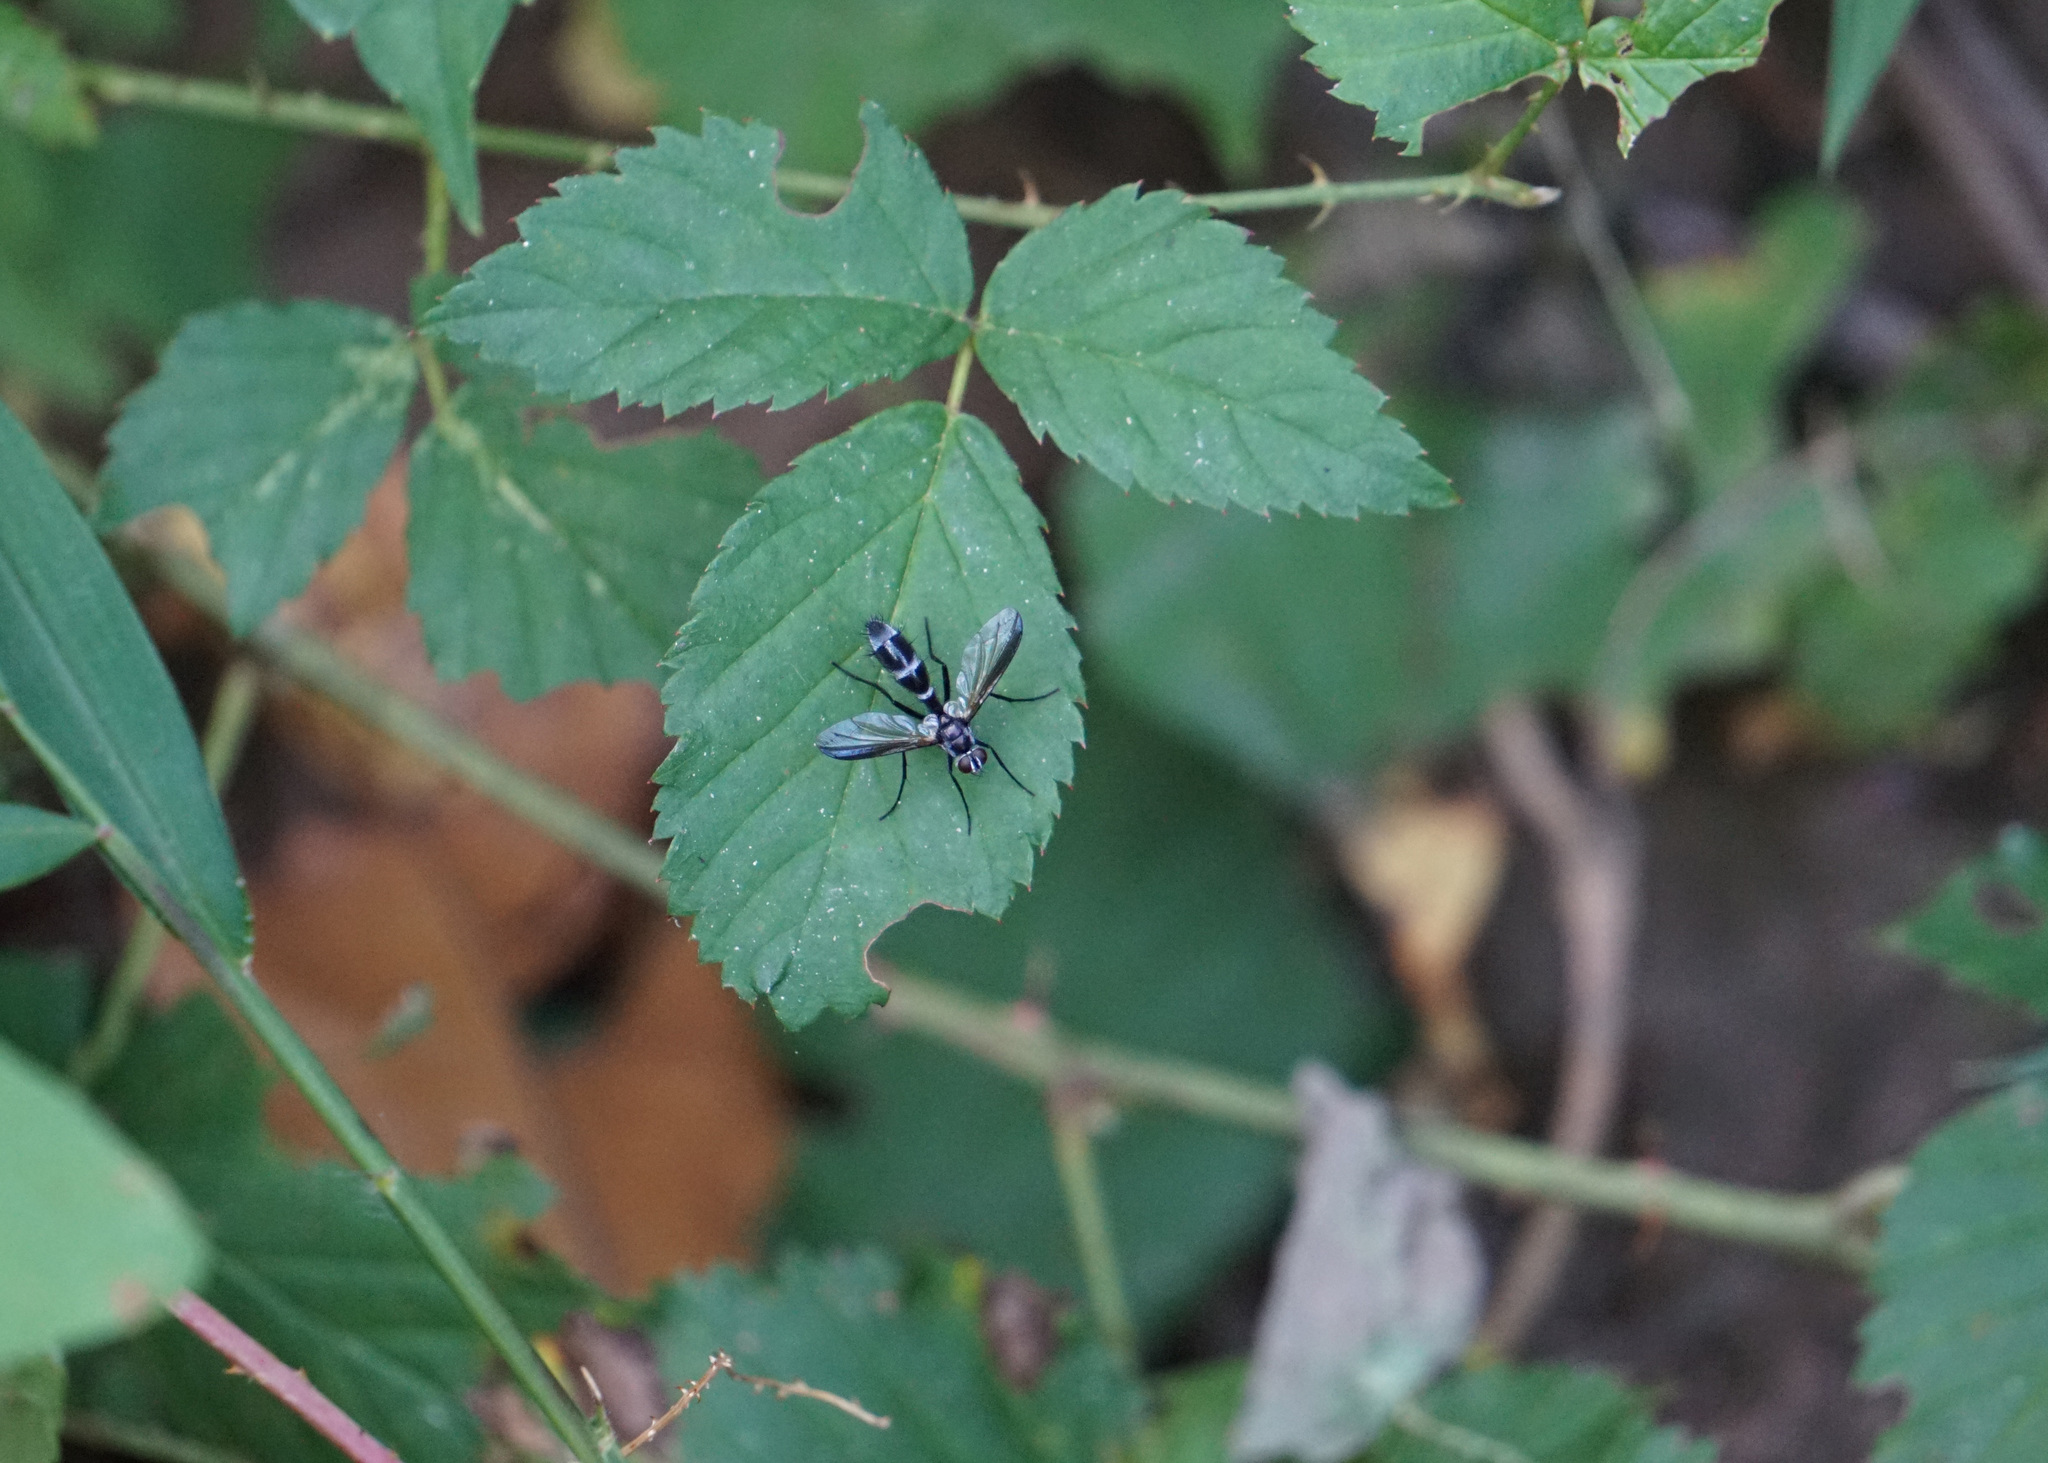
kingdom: Animalia
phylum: Arthropoda
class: Insecta
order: Diptera
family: Tachinidae
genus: Cordyligaster
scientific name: Cordyligaster septentrionalis
